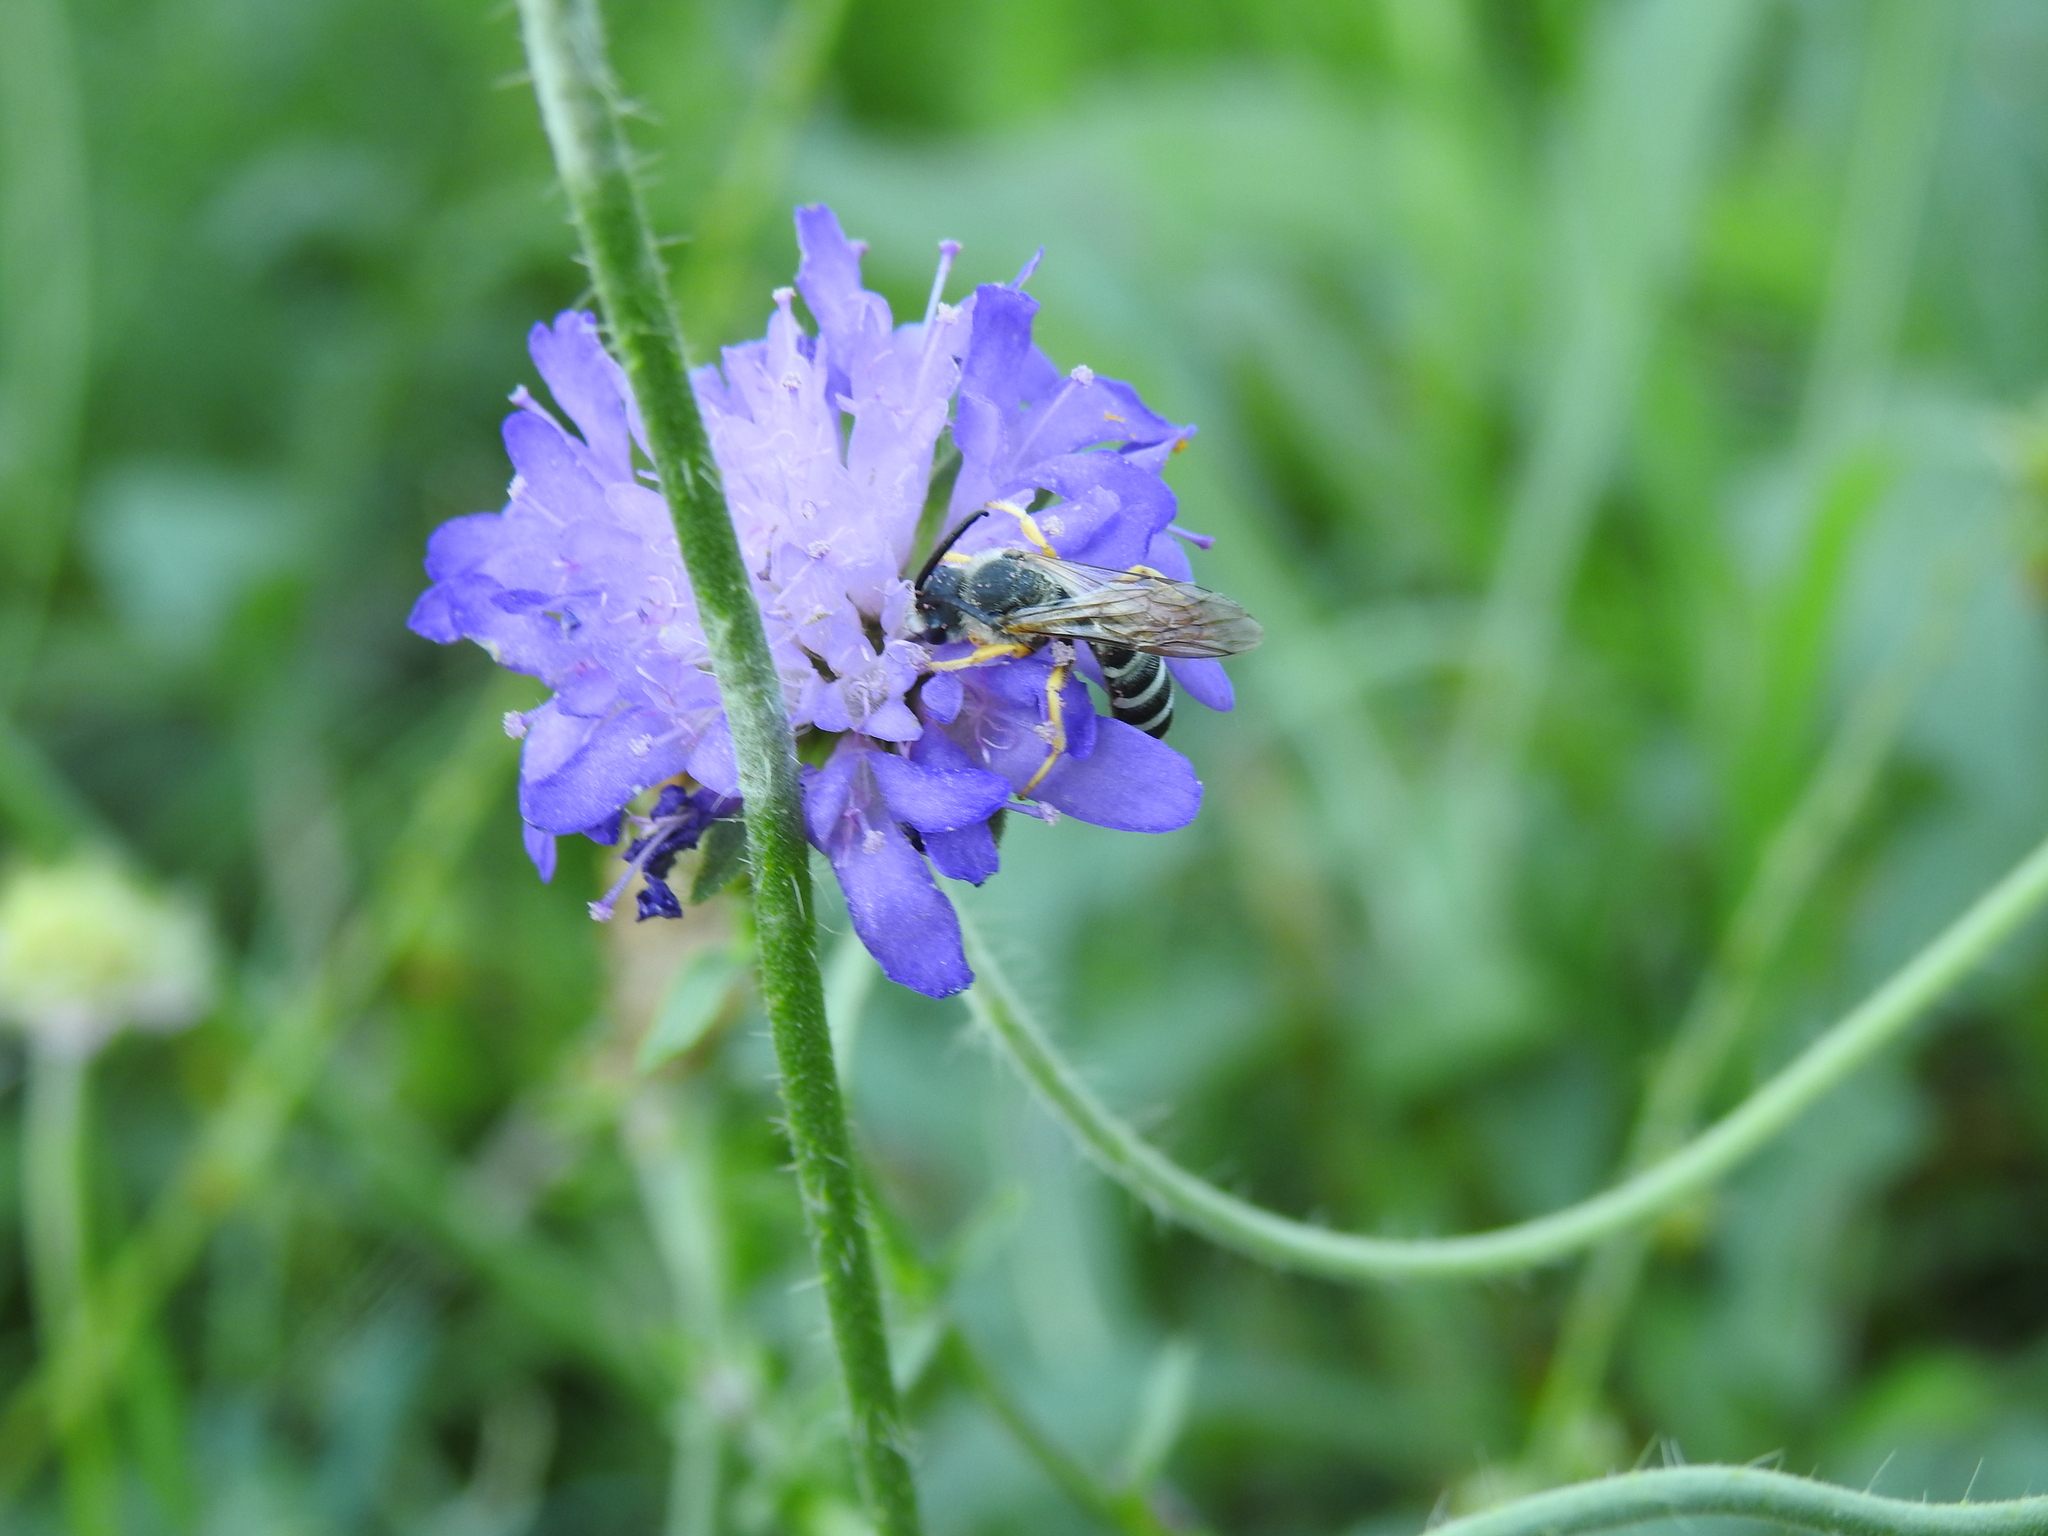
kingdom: Animalia
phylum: Arthropoda
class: Insecta
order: Hymenoptera
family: Halictidae
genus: Halictus
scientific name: Halictus scabiosae
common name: Great banded furrow bee
